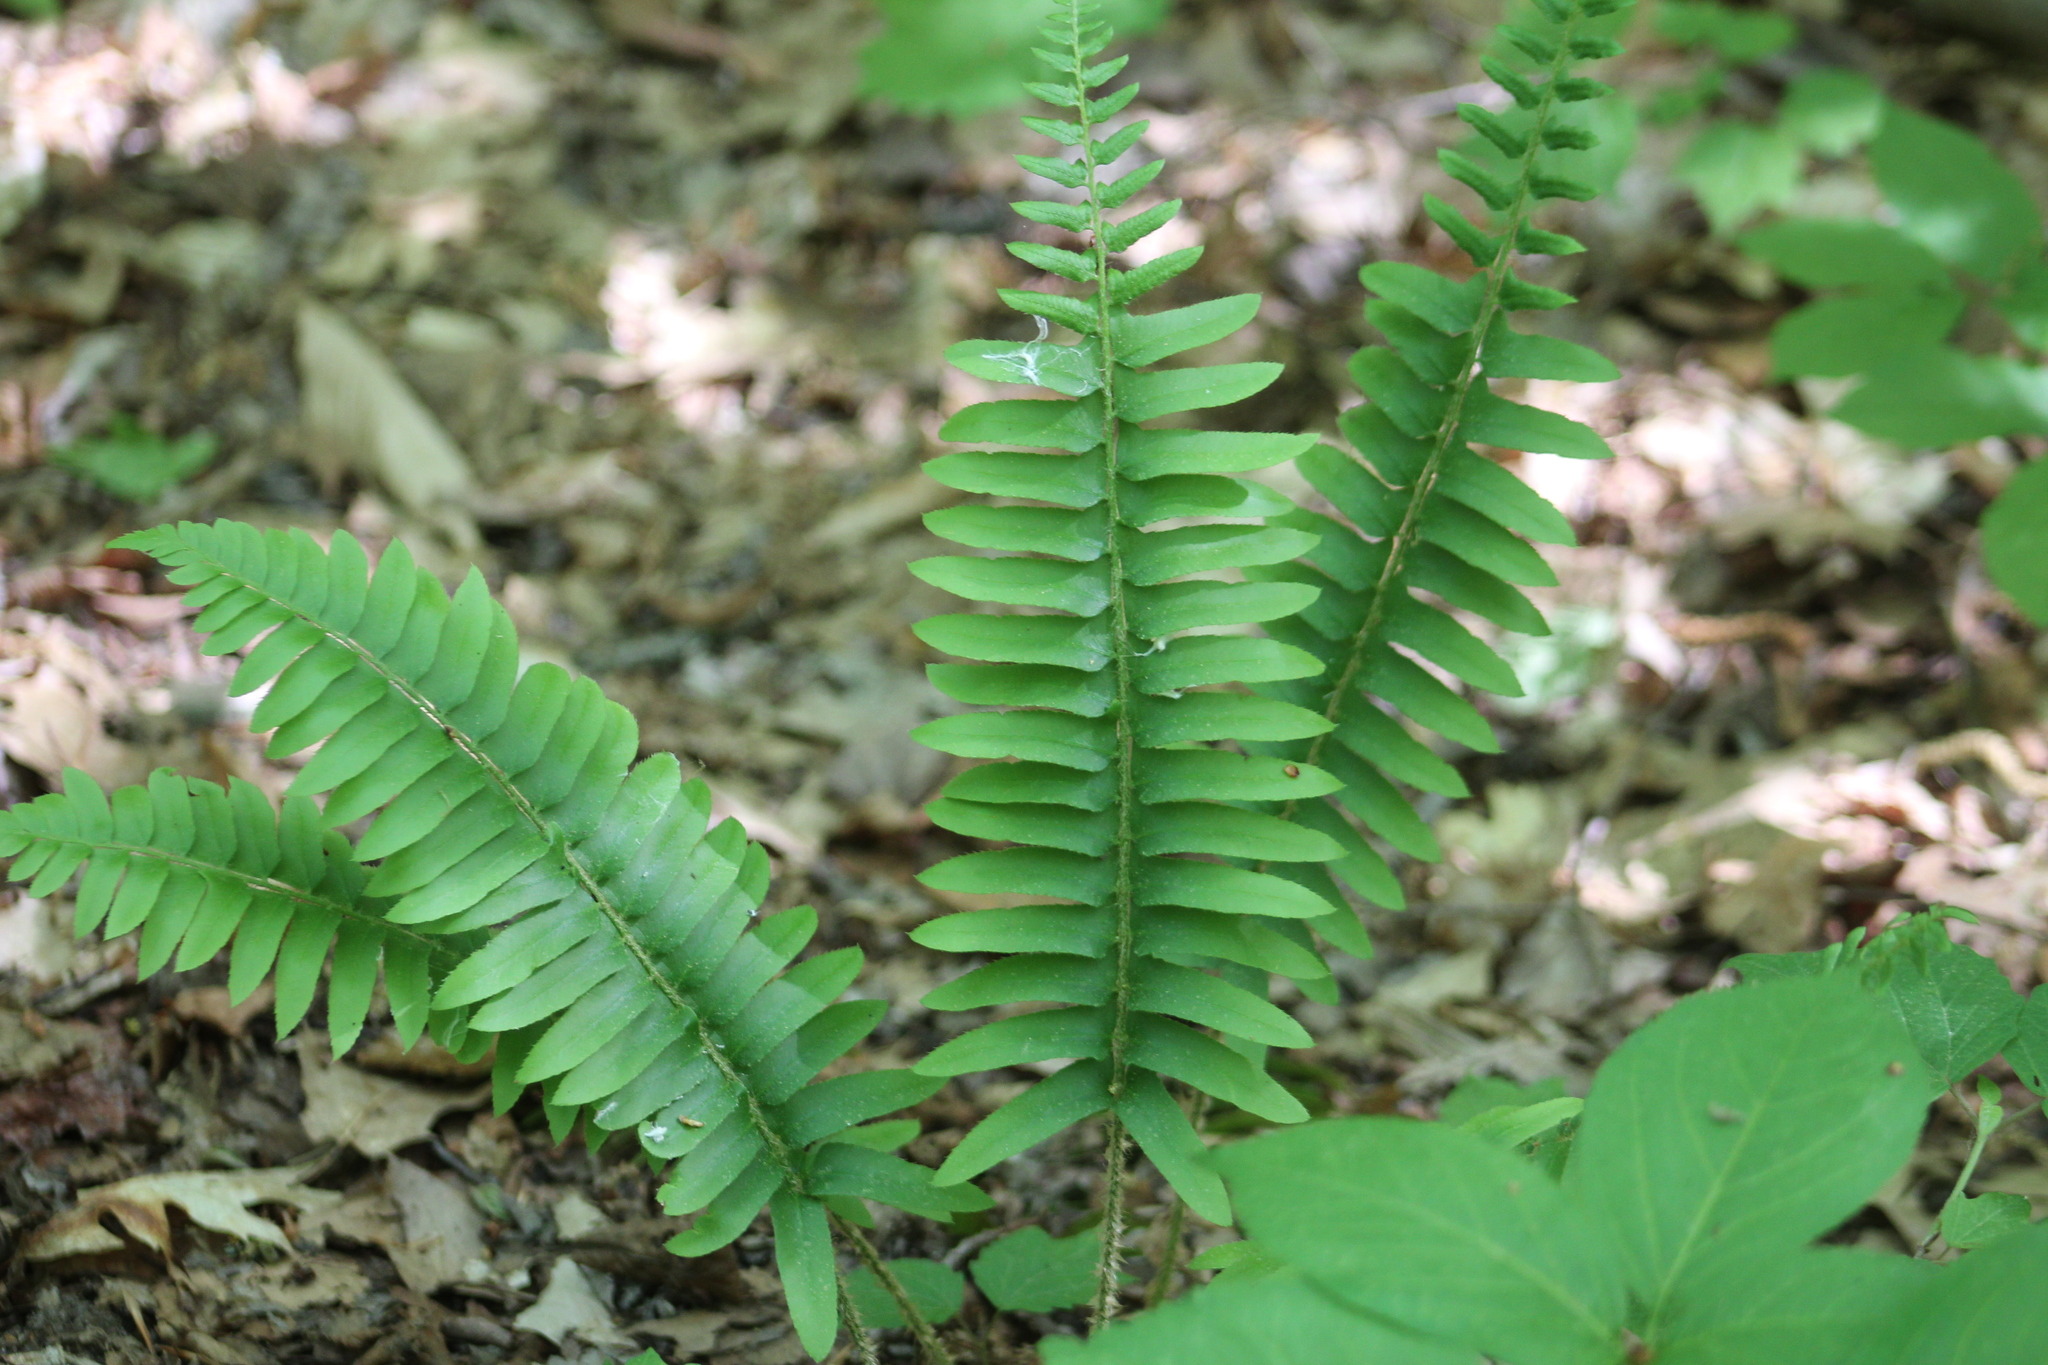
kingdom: Plantae
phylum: Tracheophyta
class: Polypodiopsida
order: Polypodiales
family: Dryopteridaceae
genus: Polystichum
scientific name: Polystichum acrostichoides
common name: Christmas fern
